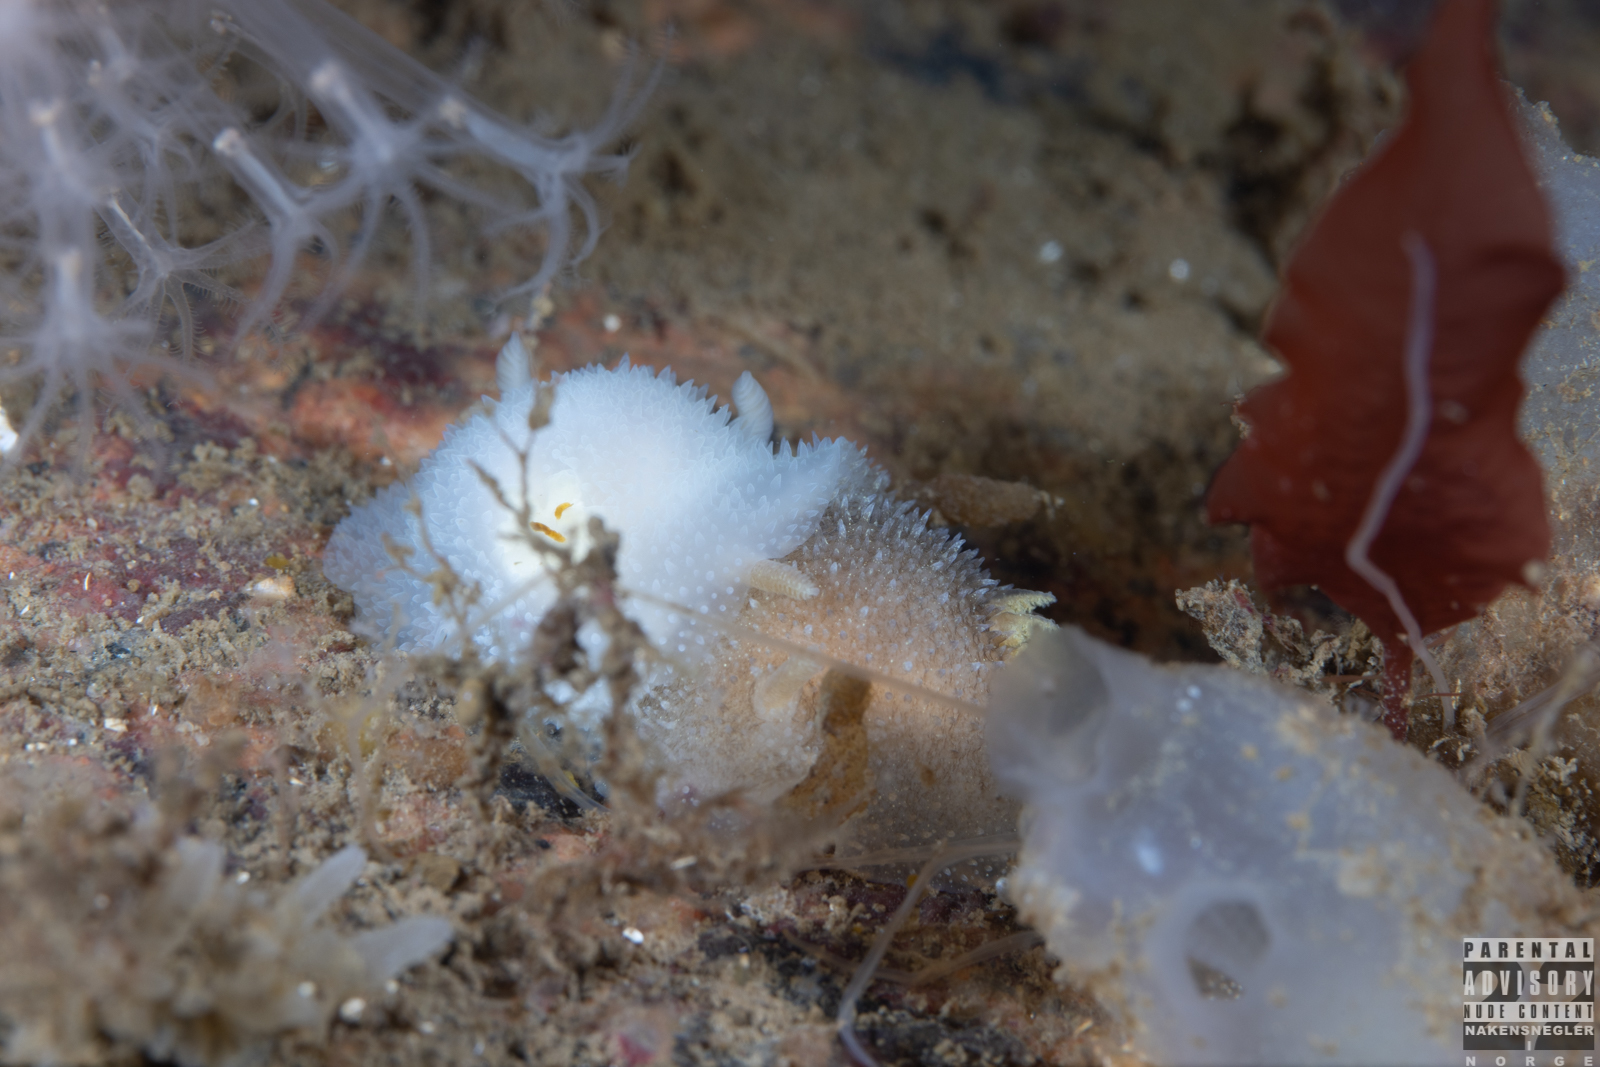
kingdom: Animalia
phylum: Mollusca
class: Gastropoda
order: Nudibranchia
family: Onchidorididae
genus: Acanthodoris
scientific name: Acanthodoris pilosa
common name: Hairy spiny doris
